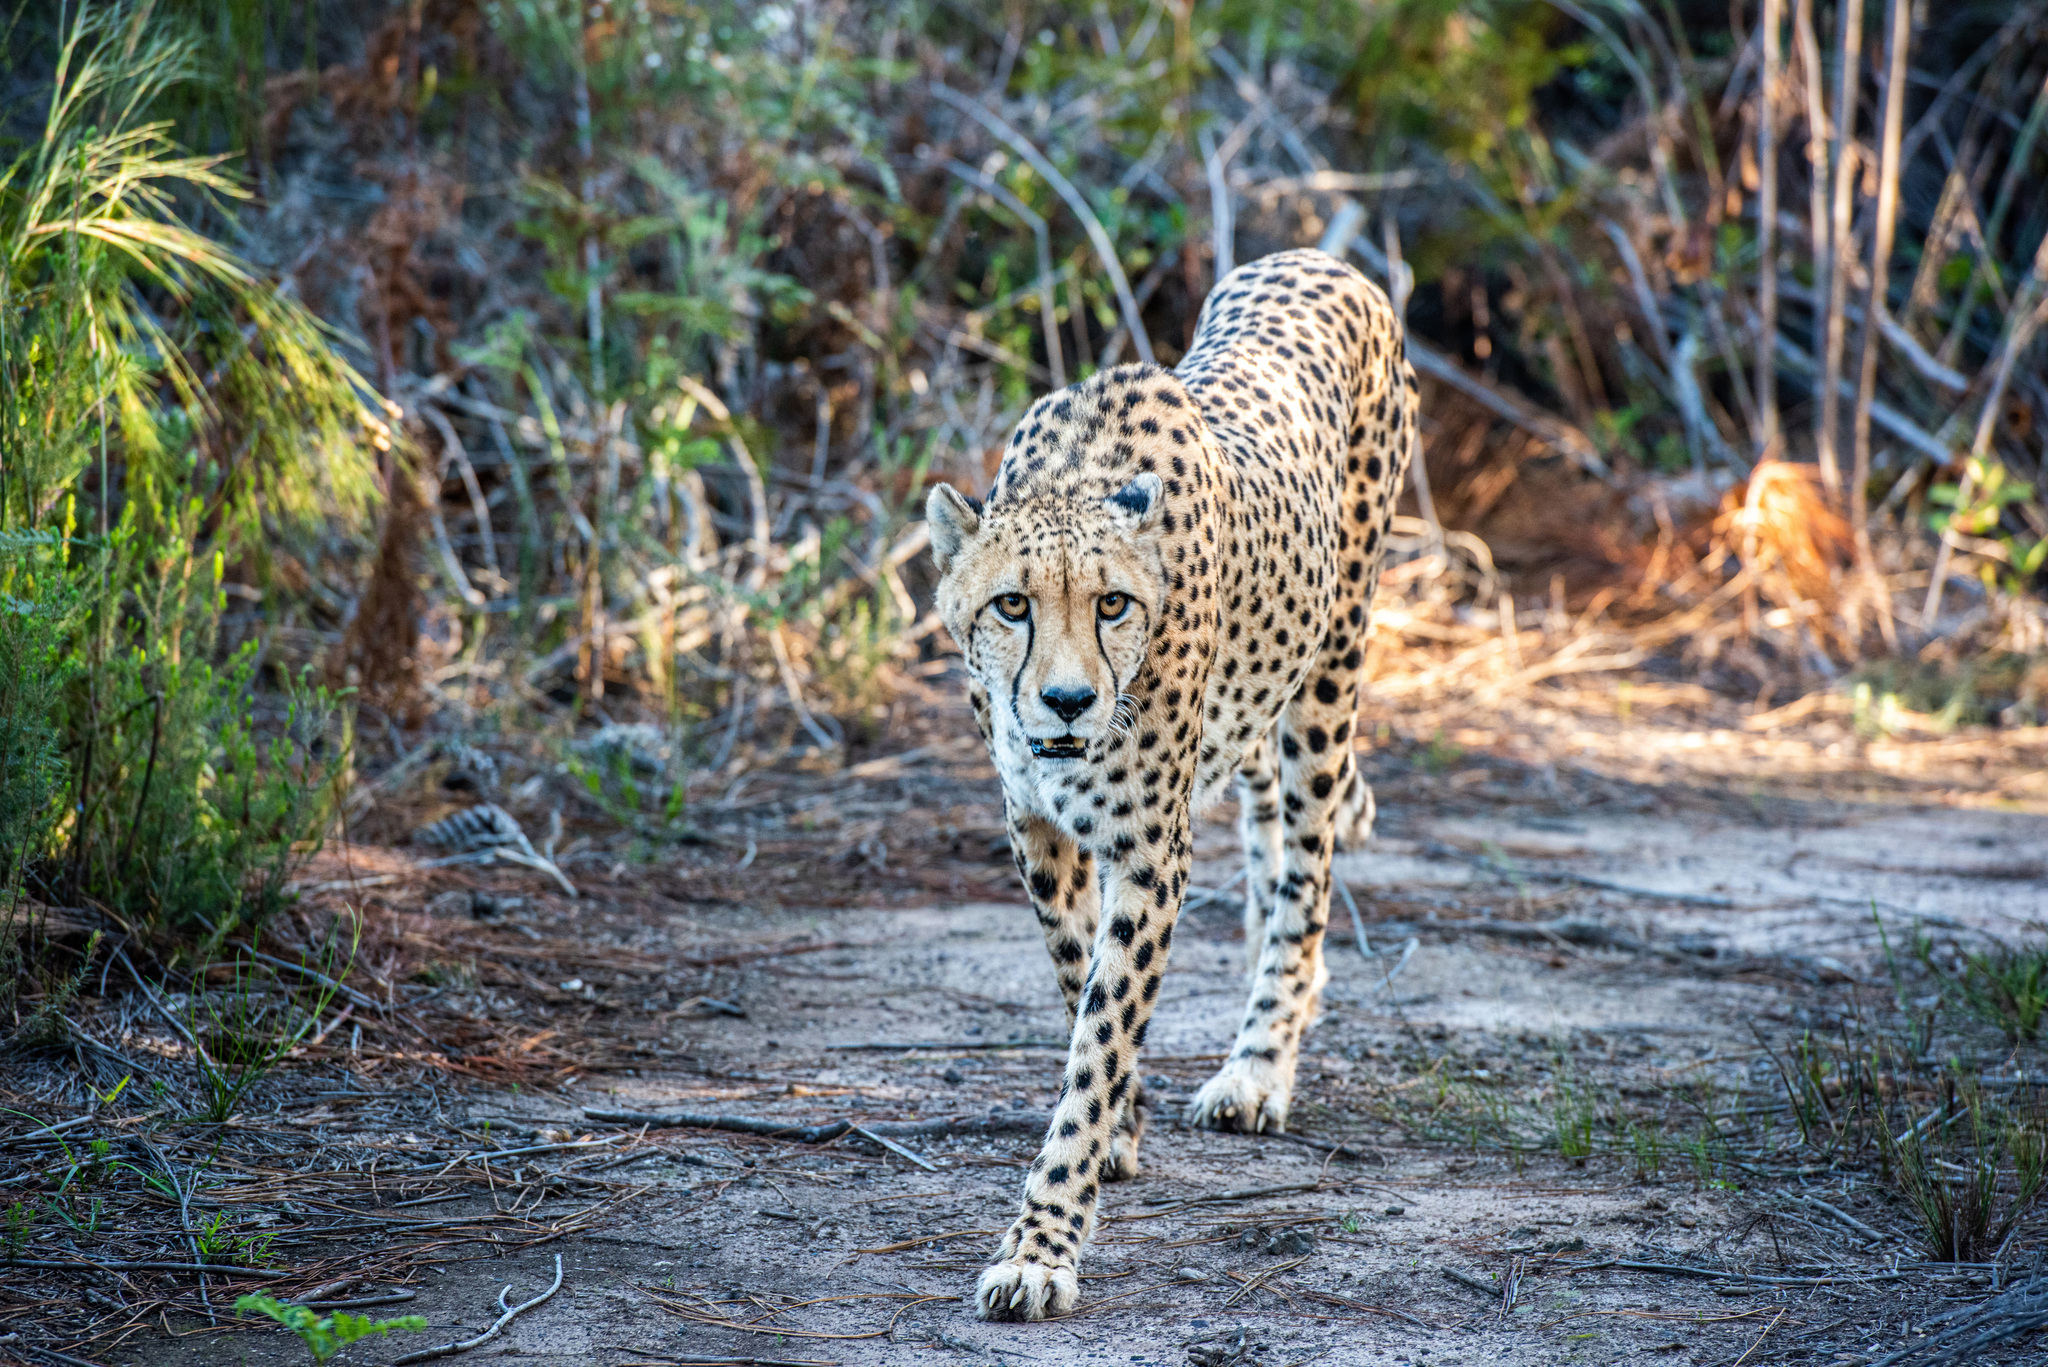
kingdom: Animalia
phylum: Chordata
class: Mammalia
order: Carnivora
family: Felidae
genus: Acinonyx
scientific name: Acinonyx jubatus
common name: Cheetah
